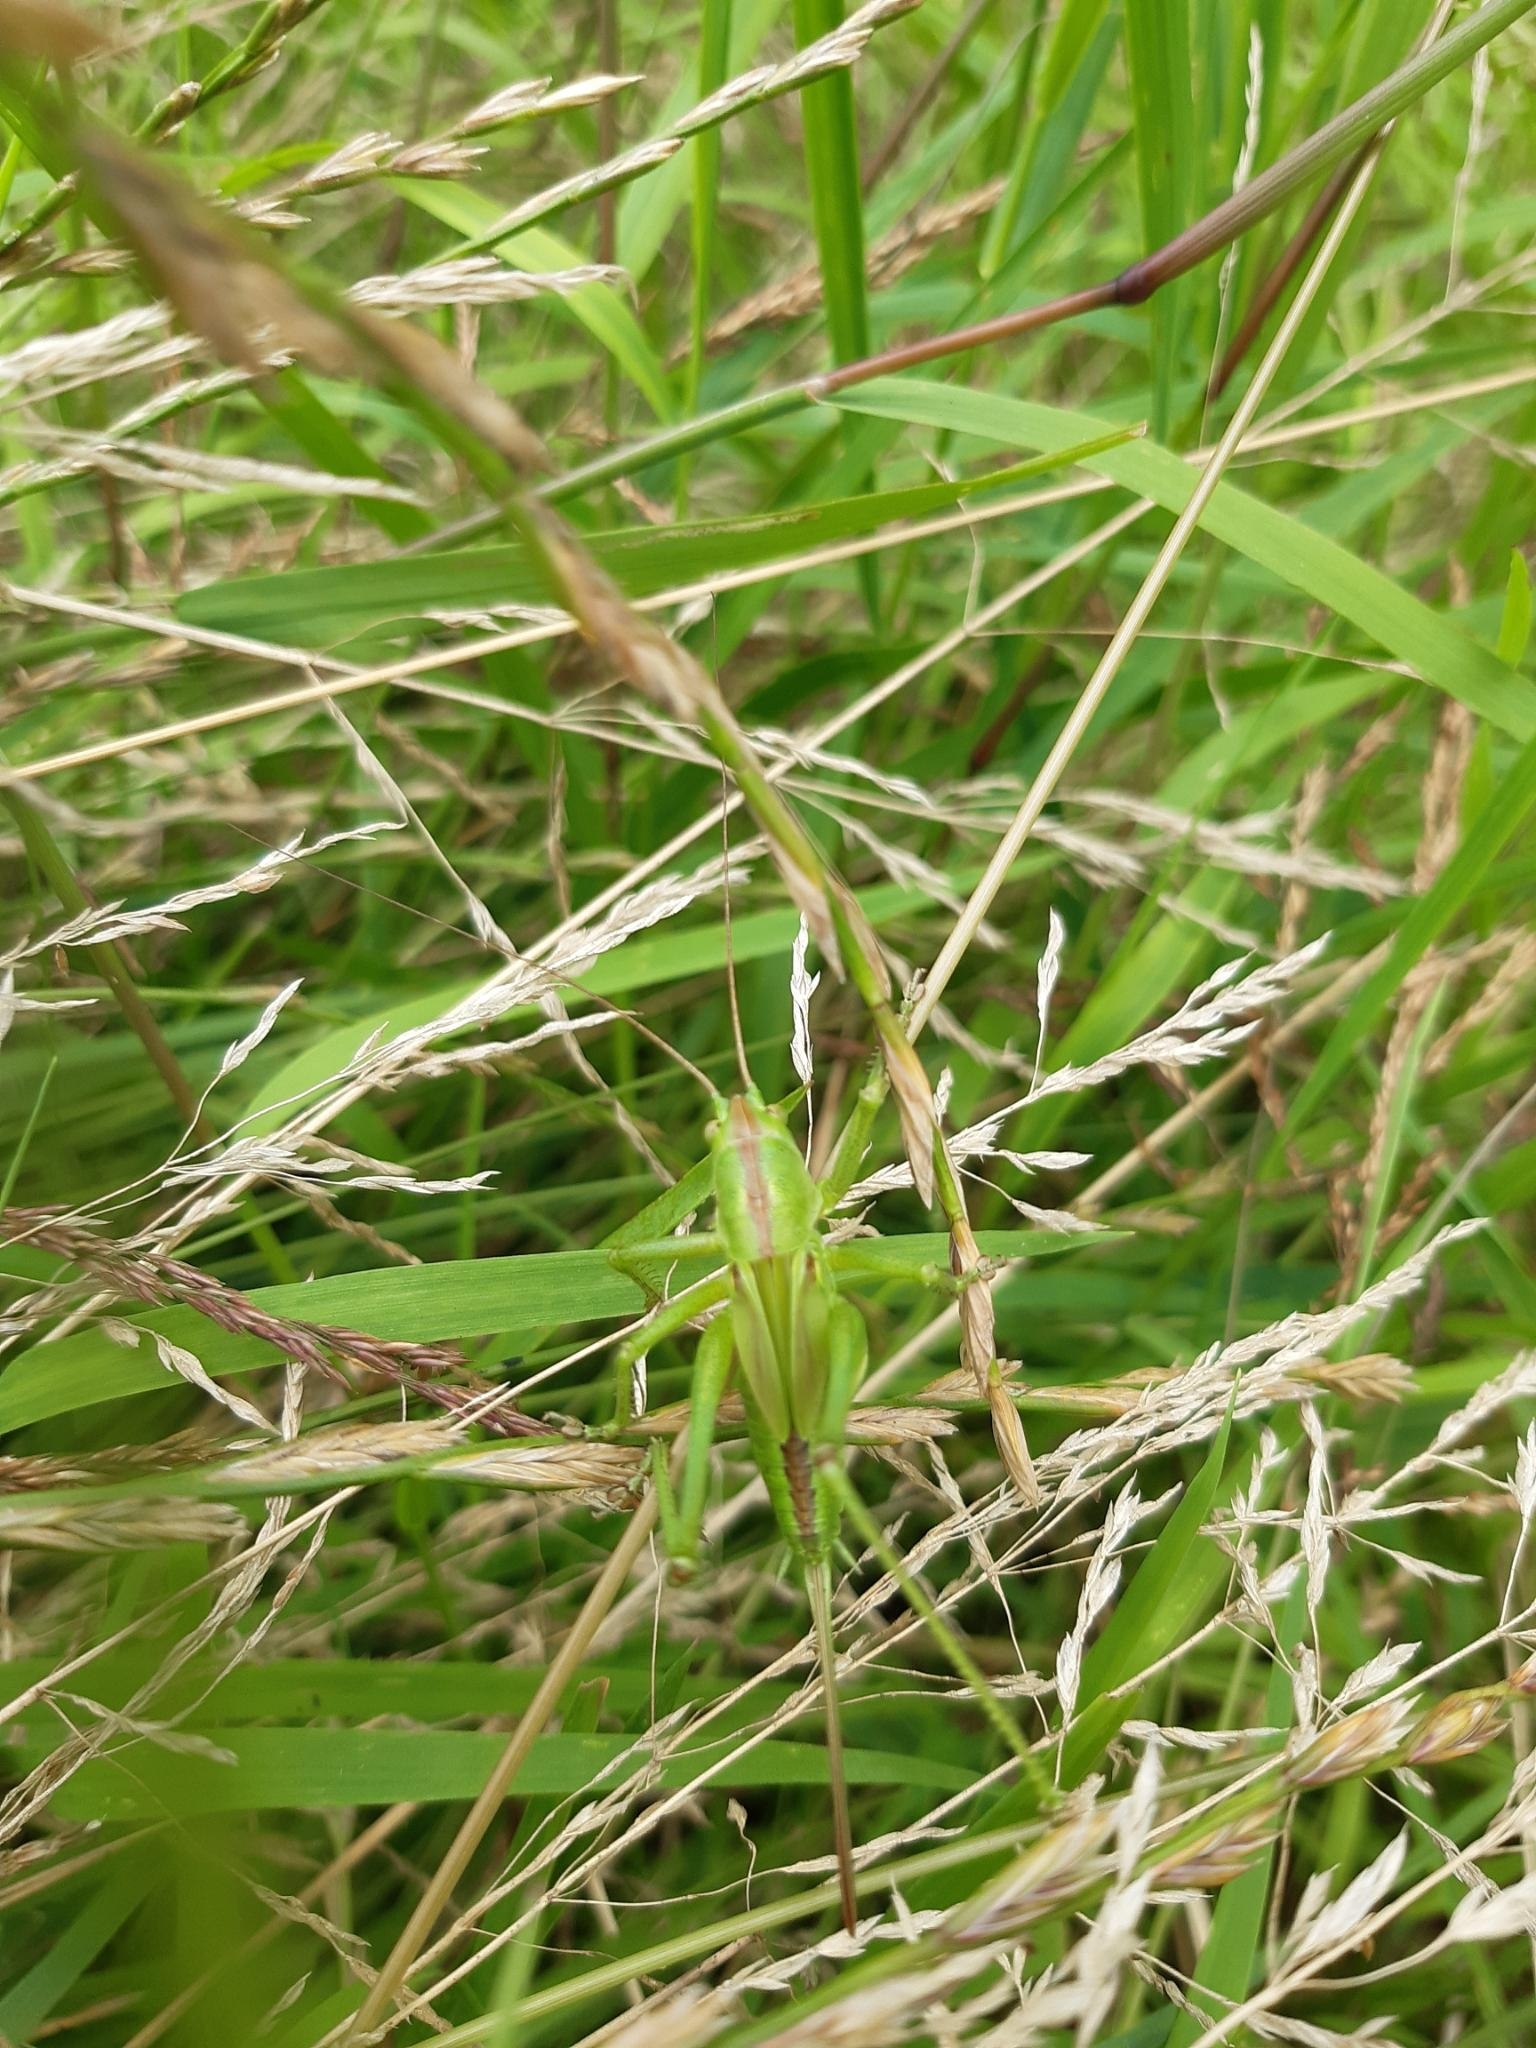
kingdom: Animalia
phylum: Arthropoda
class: Insecta
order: Orthoptera
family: Tettigoniidae
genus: Tettigonia
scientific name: Tettigonia viridissima
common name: Great green bush-cricket
